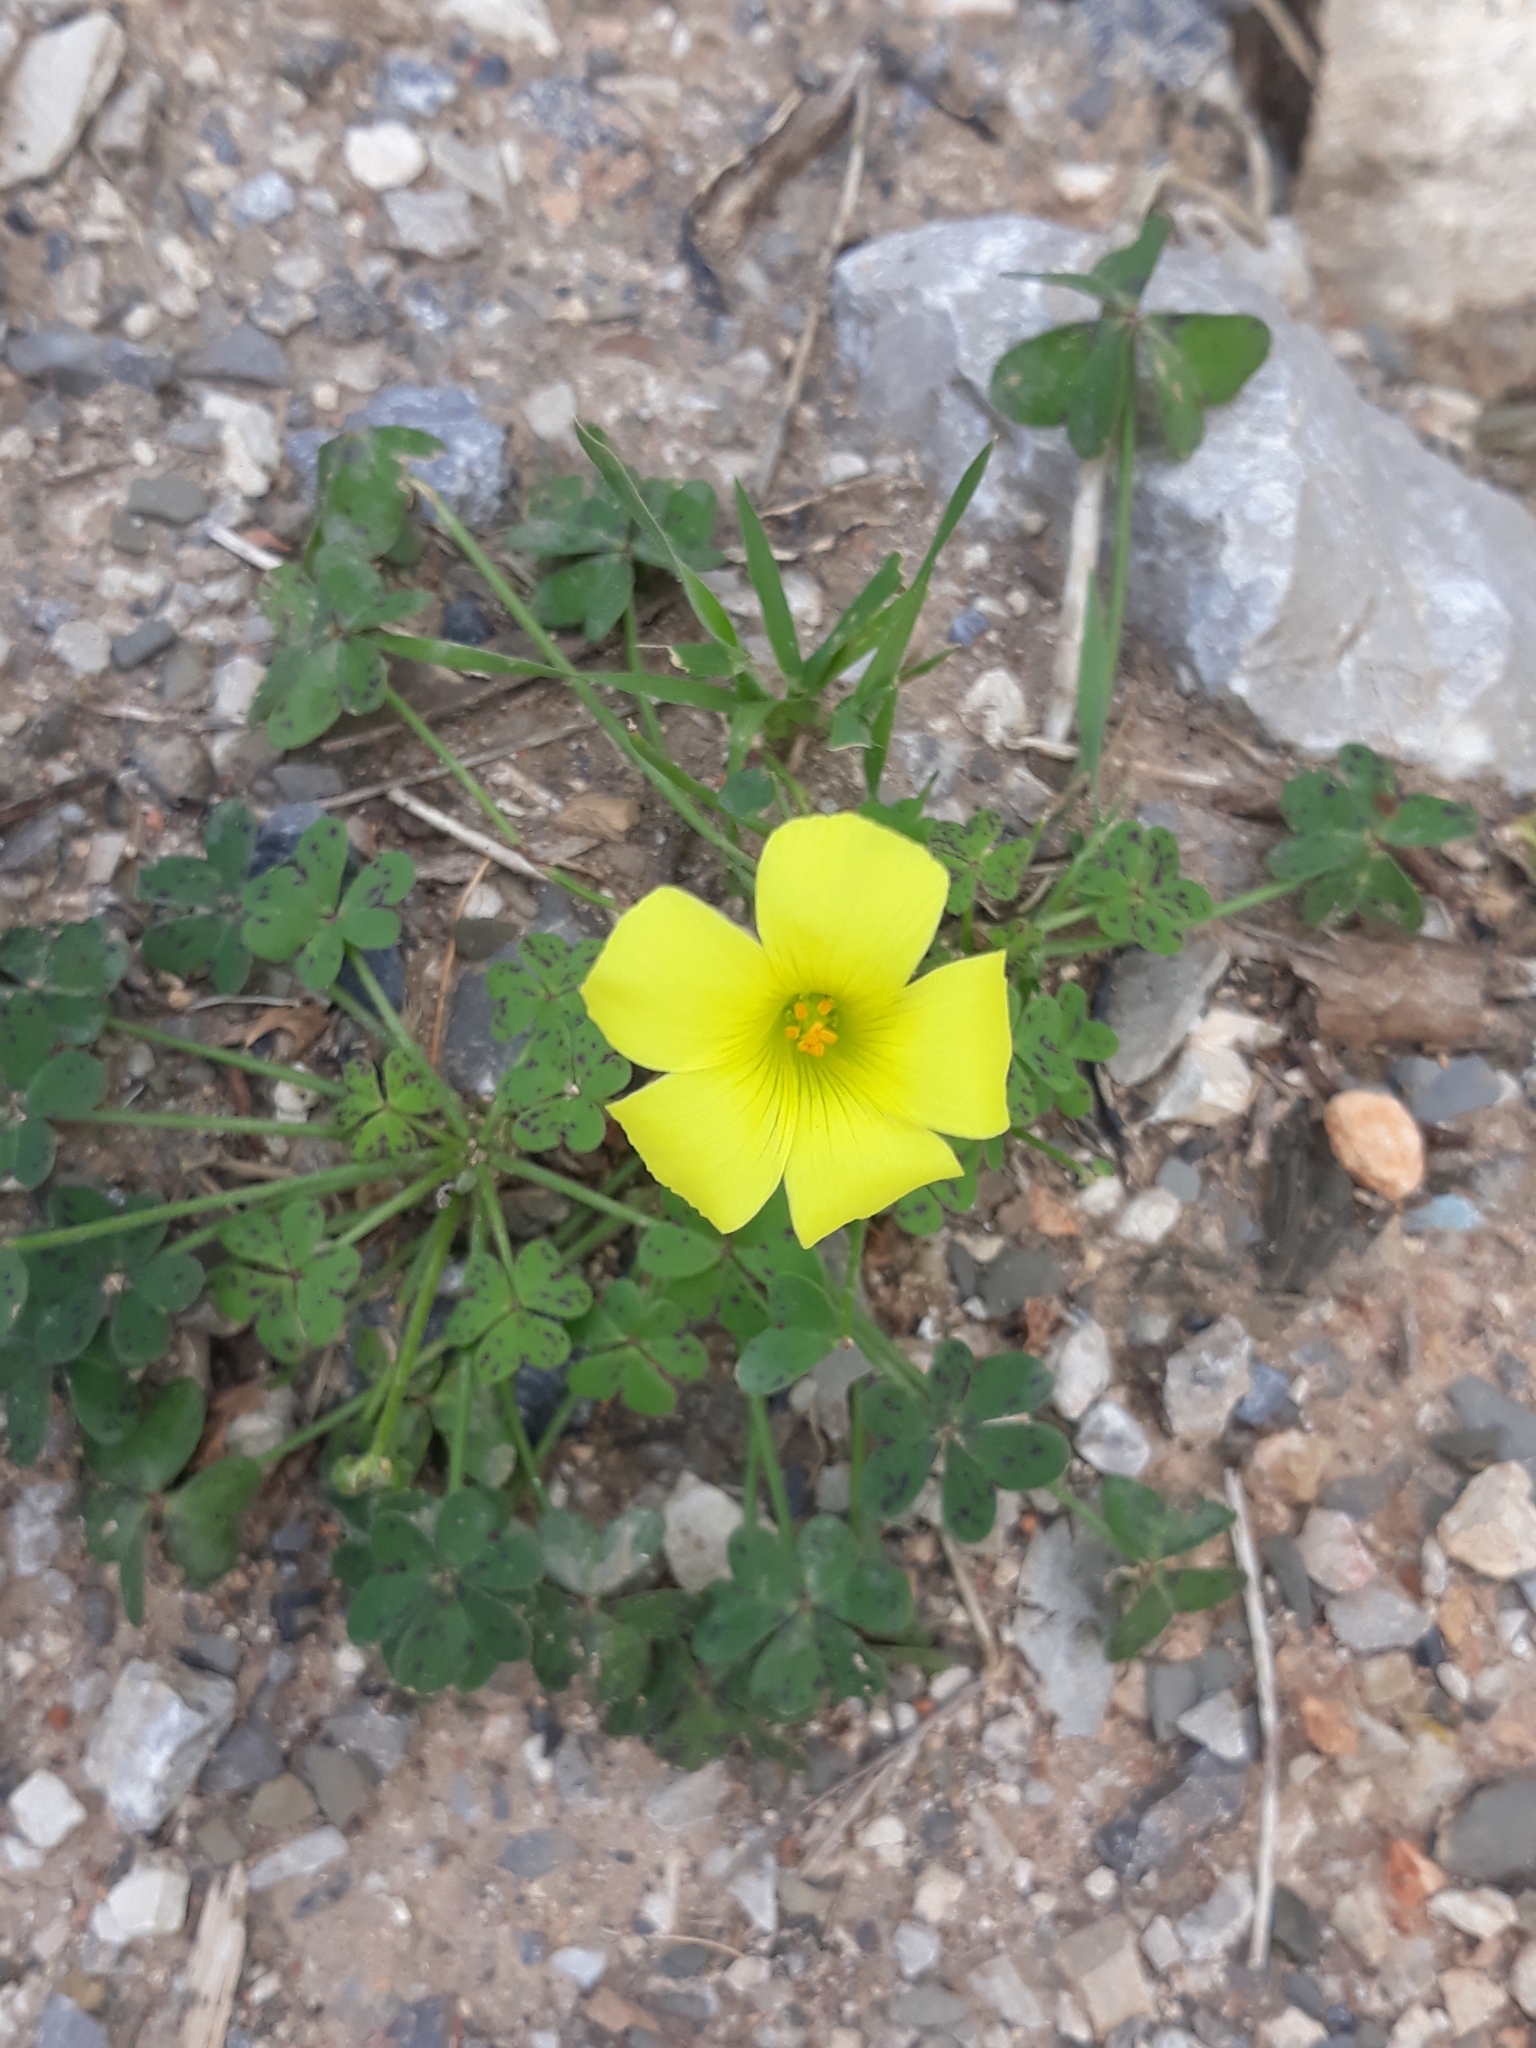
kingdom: Plantae
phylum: Tracheophyta
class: Magnoliopsida
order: Oxalidales
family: Oxalidaceae
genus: Oxalis
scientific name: Oxalis pes-caprae
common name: Bermuda-buttercup
